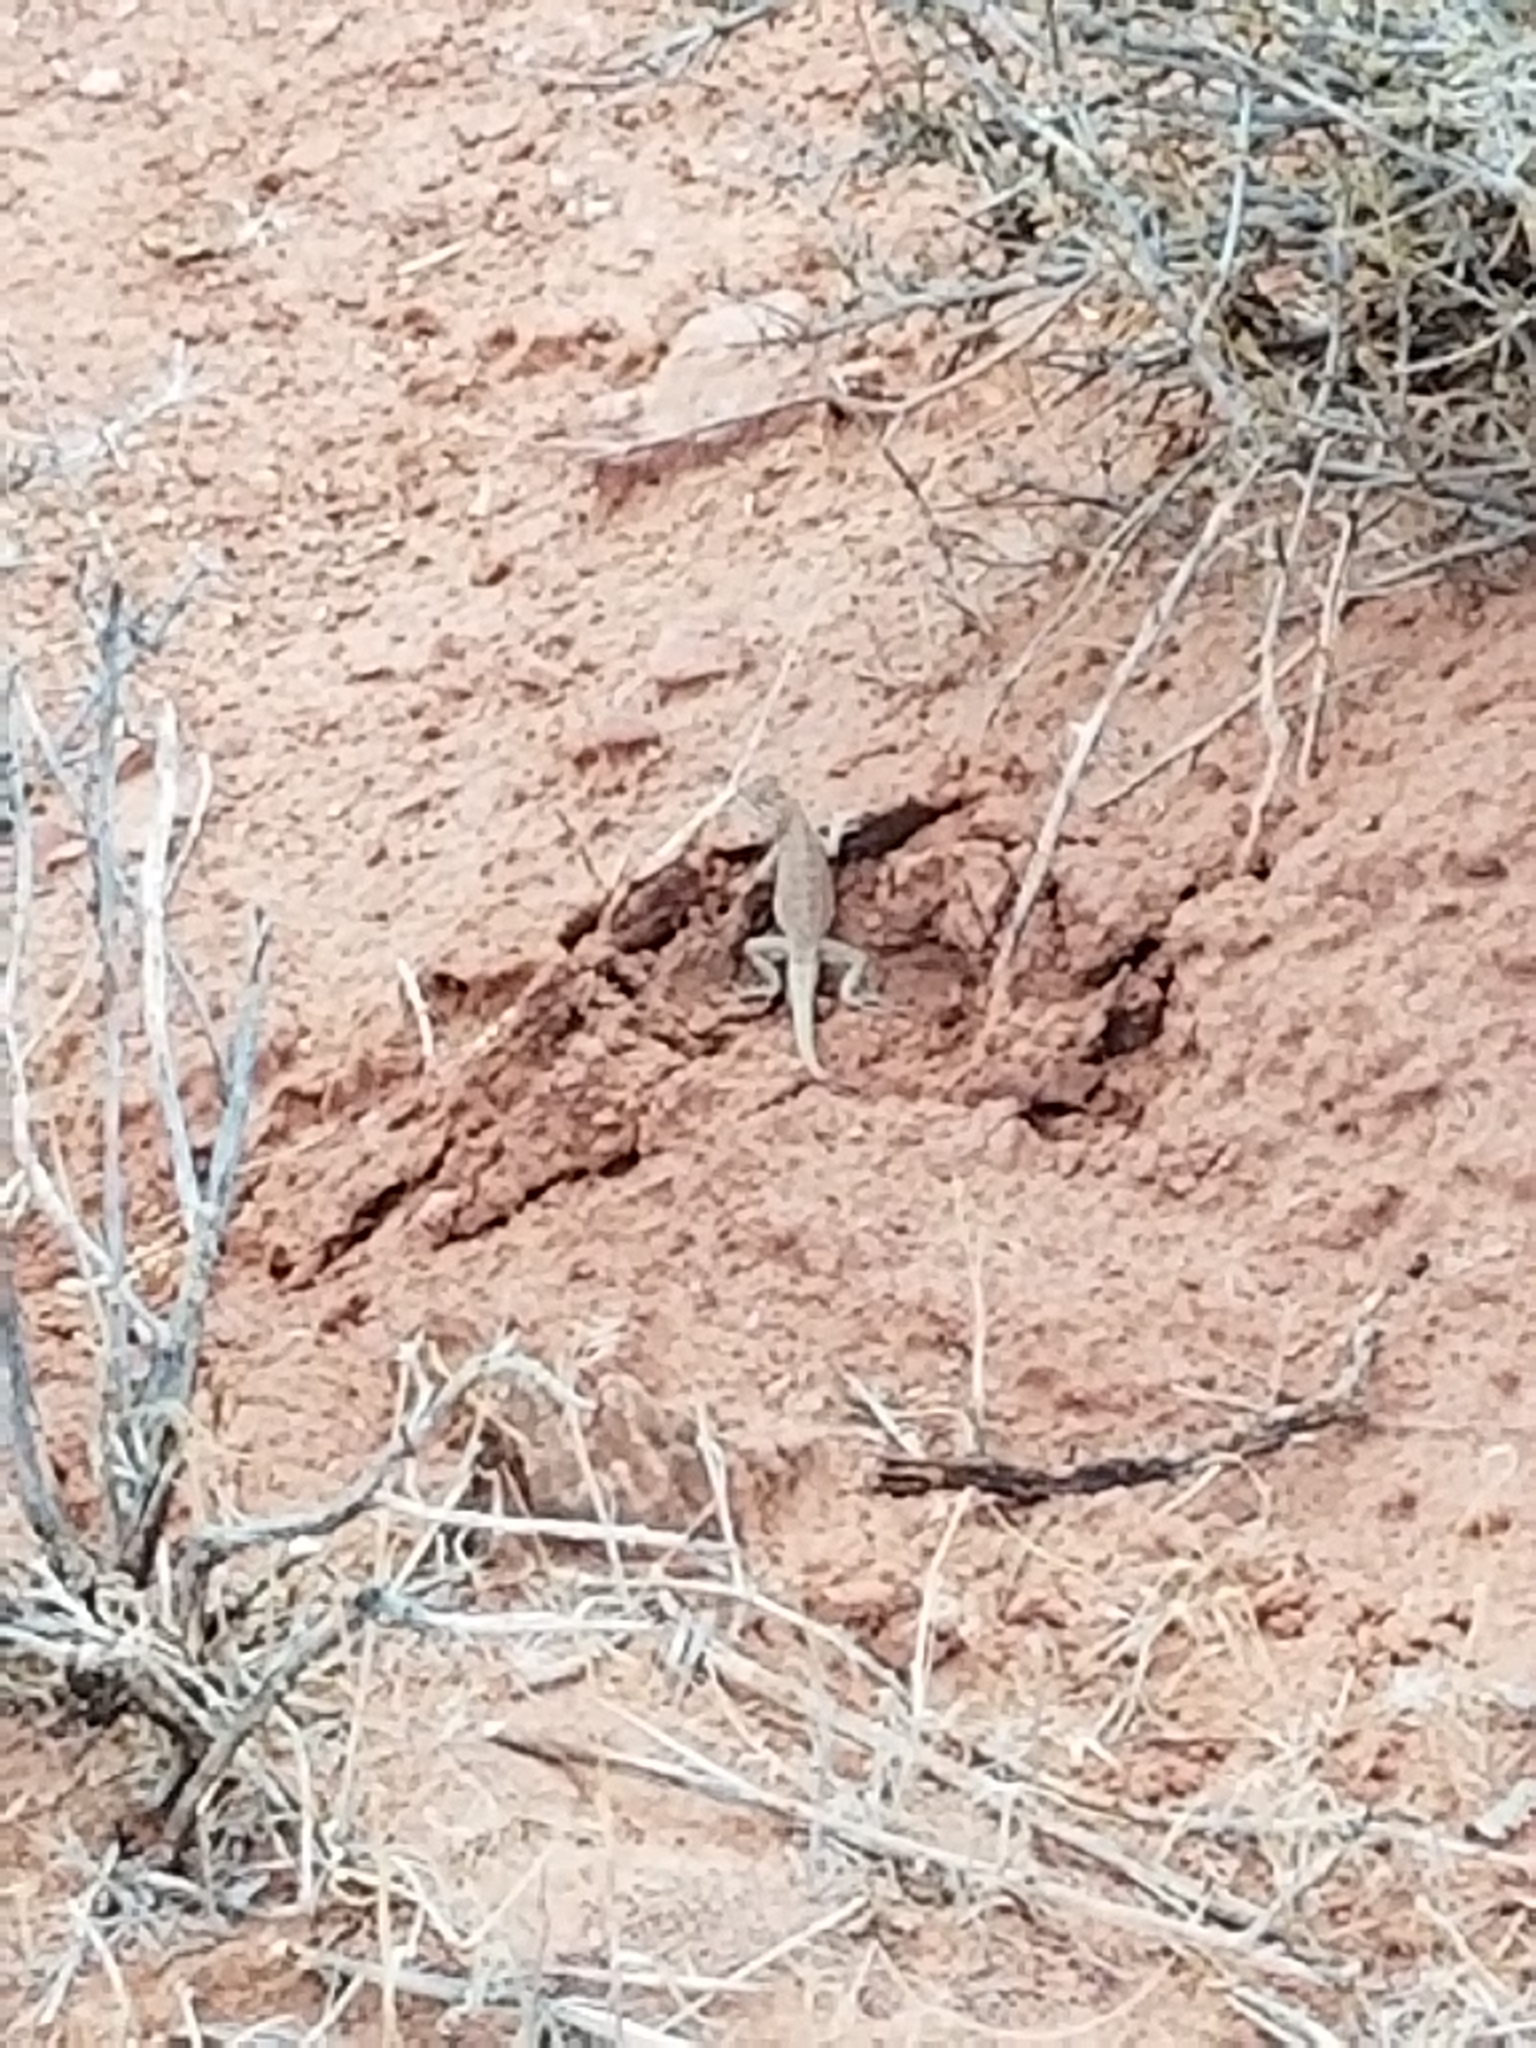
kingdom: Animalia
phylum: Chordata
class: Squamata
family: Phrynosomatidae
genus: Uta
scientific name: Uta stansburiana
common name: Side-blotched lizard
